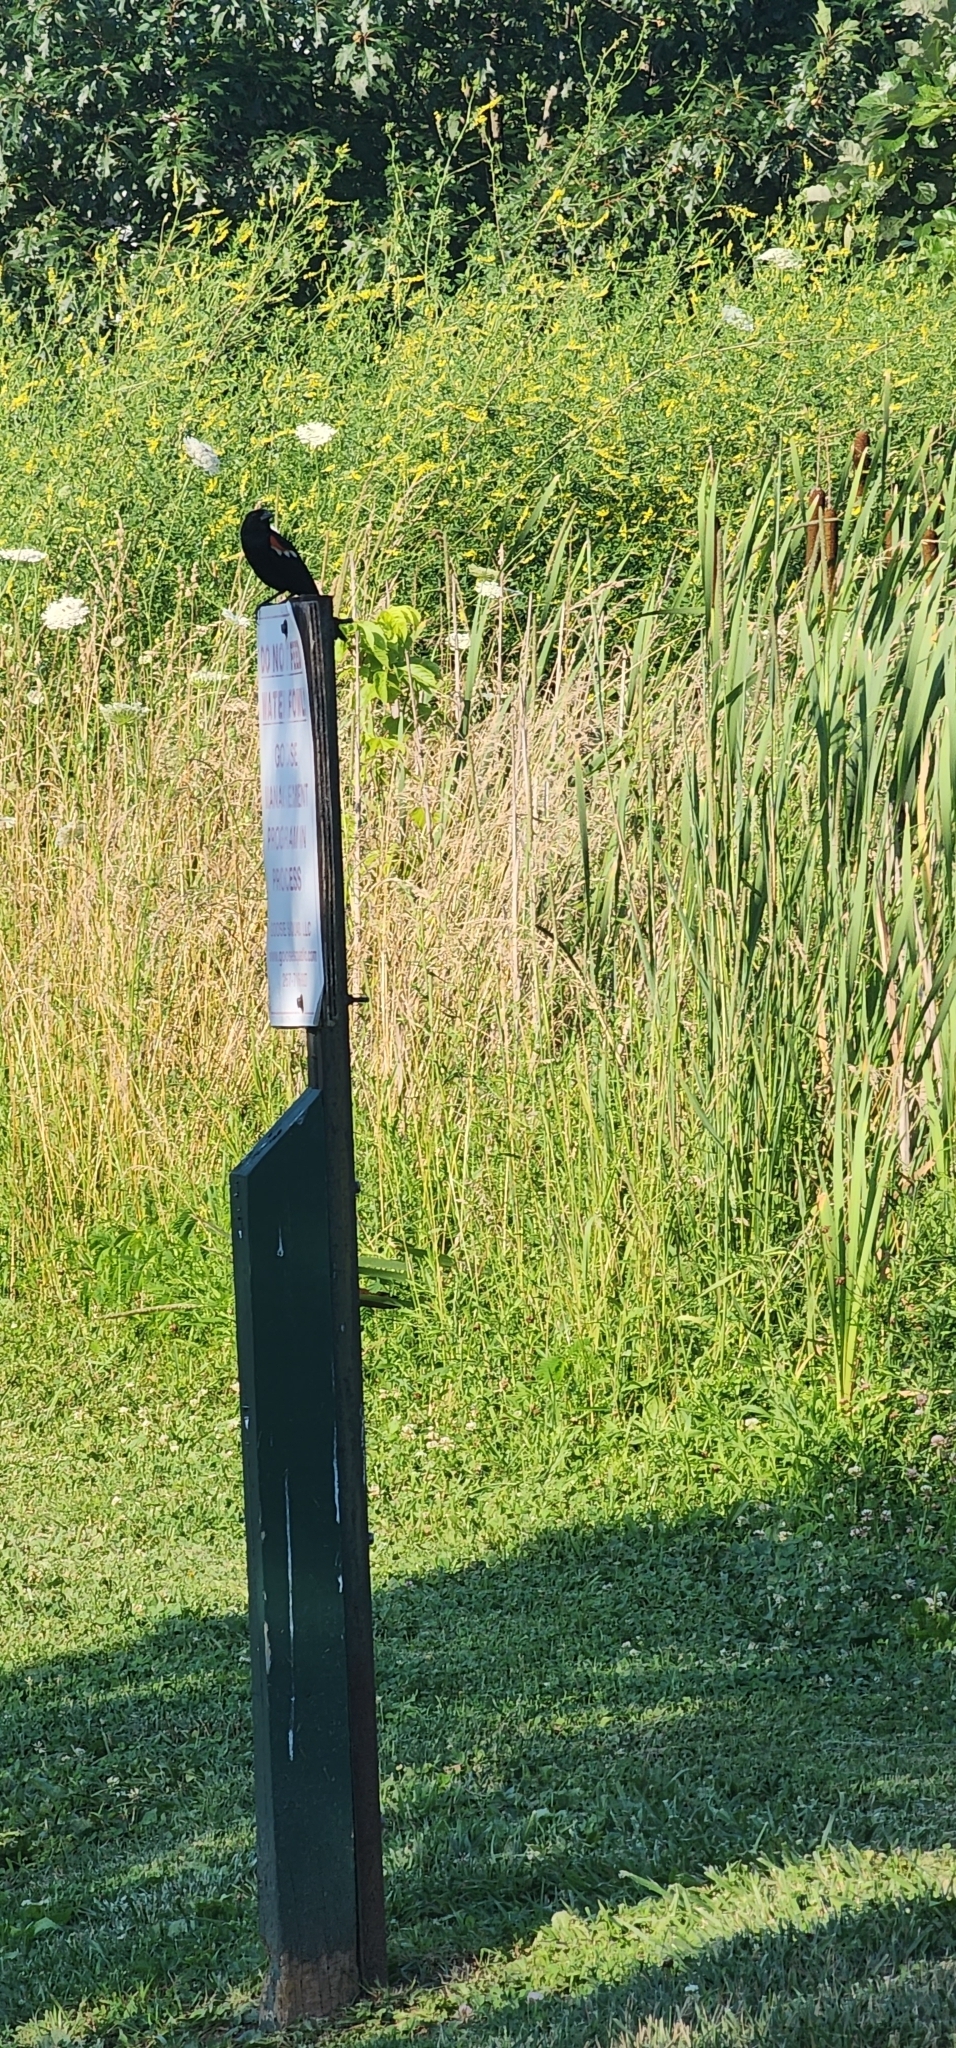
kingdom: Animalia
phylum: Chordata
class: Aves
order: Passeriformes
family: Icteridae
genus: Agelaius
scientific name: Agelaius phoeniceus
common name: Red-winged blackbird
